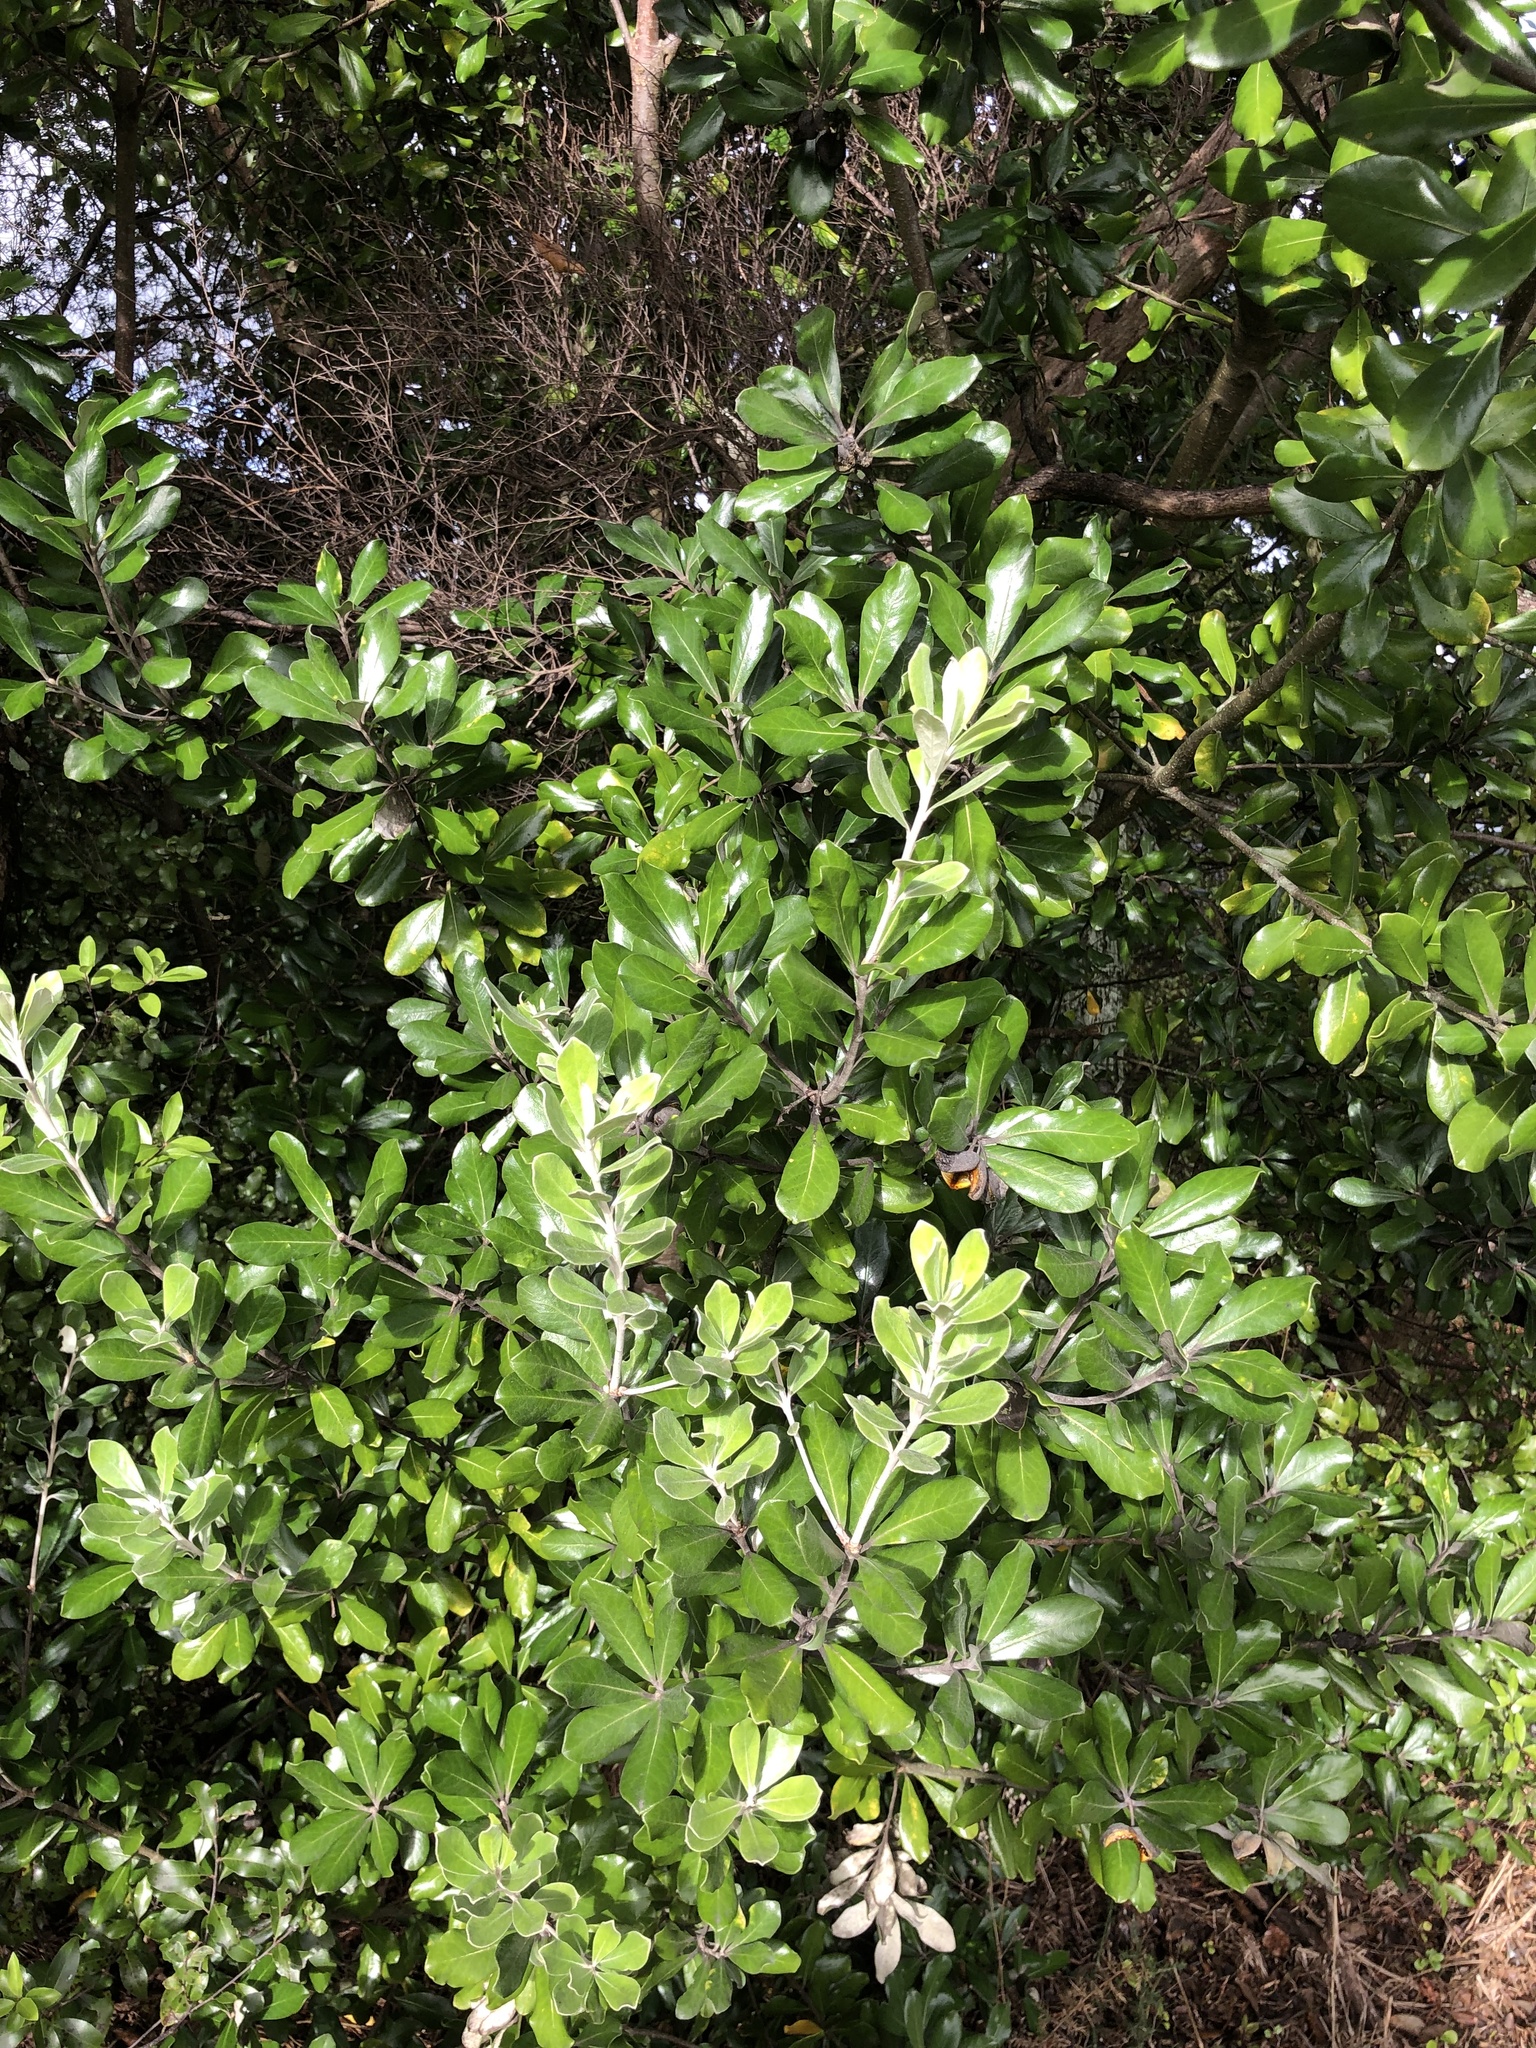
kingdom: Plantae
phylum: Tracheophyta
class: Magnoliopsida
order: Apiales
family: Pittosporaceae
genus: Pittosporum
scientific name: Pittosporum crassifolium
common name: Karo
